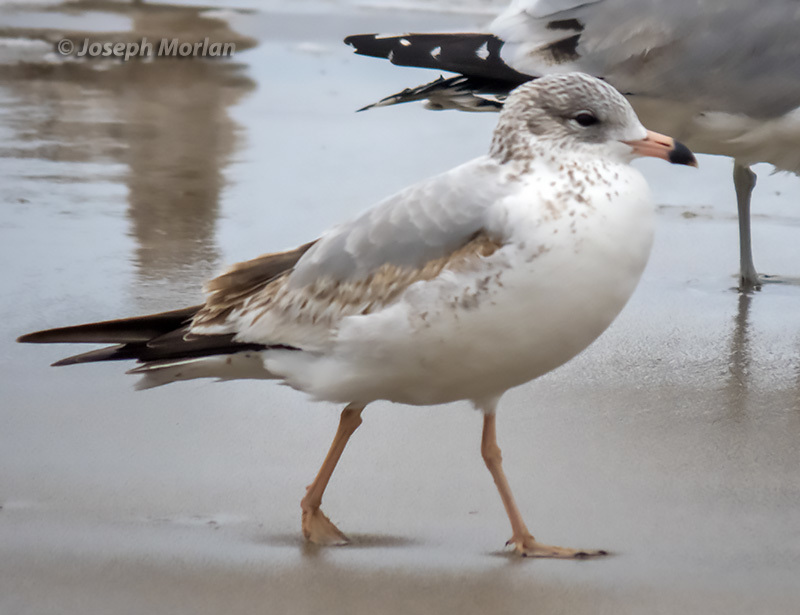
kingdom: Animalia
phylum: Chordata
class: Aves
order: Charadriiformes
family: Laridae
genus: Larus
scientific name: Larus delawarensis
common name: Ring-billed gull
